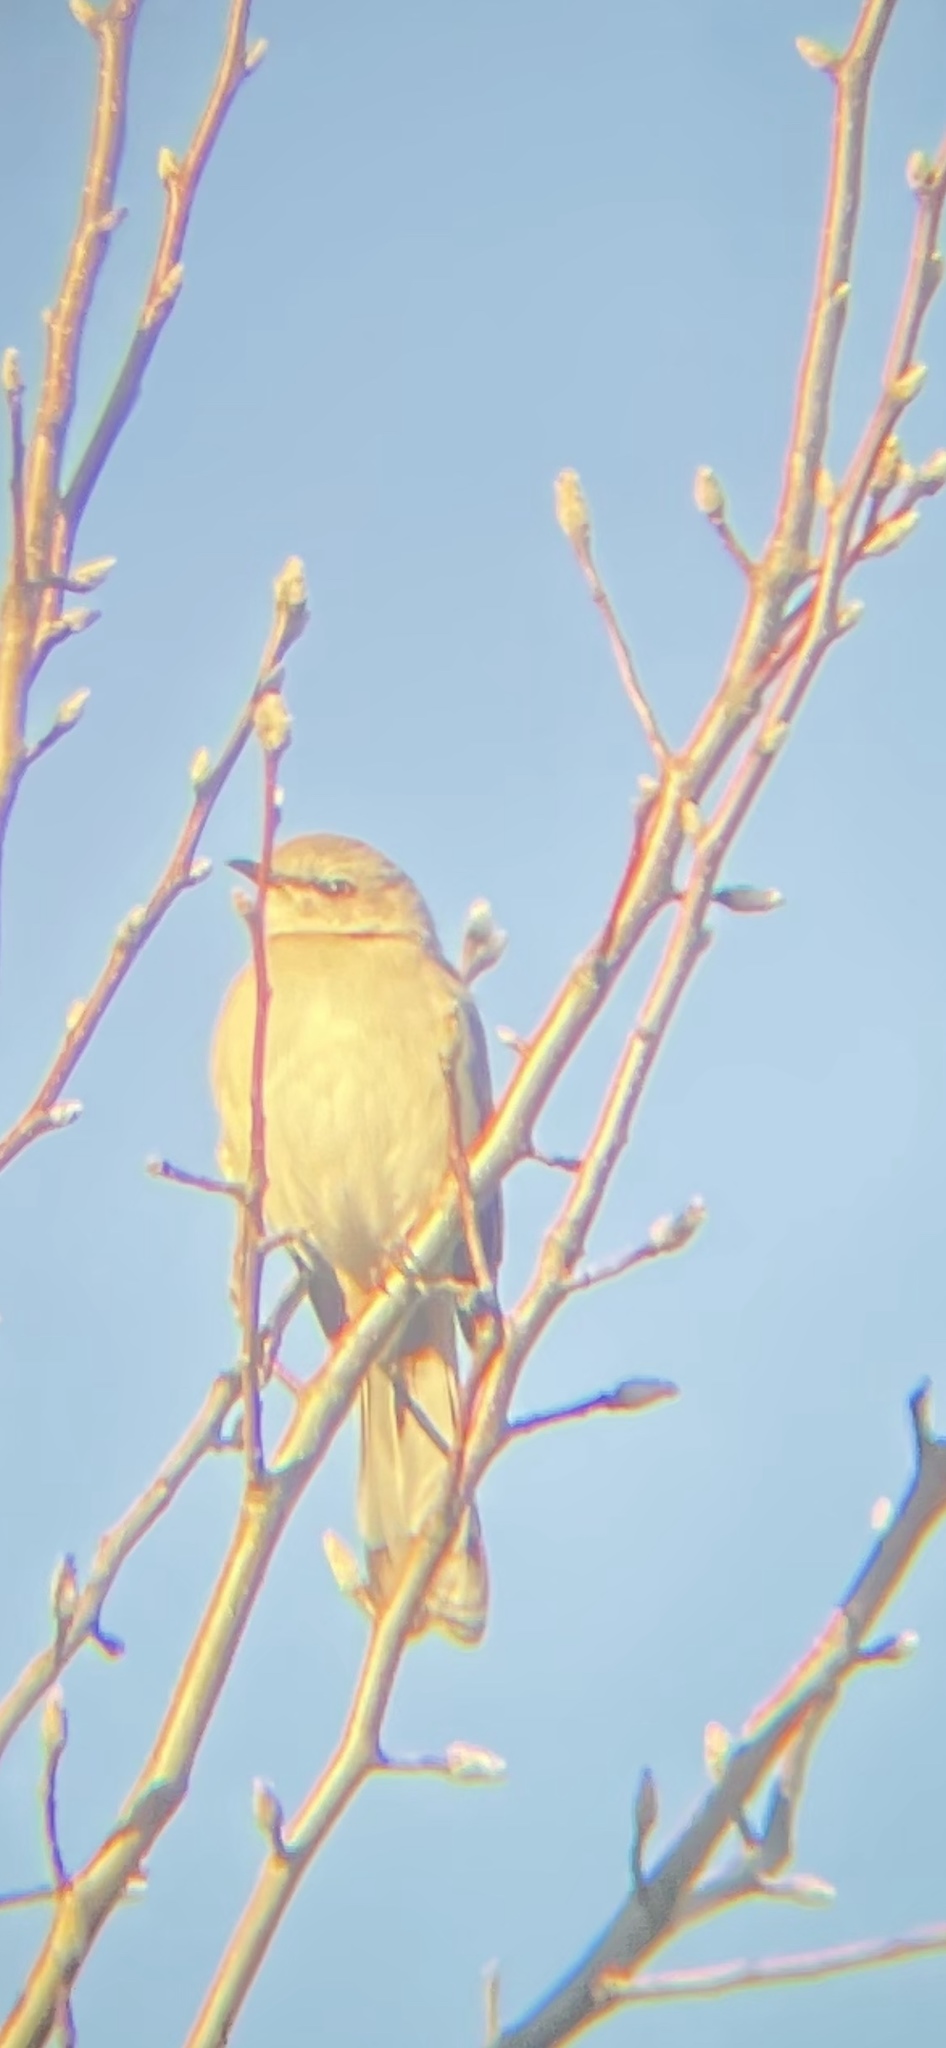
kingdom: Animalia
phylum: Chordata
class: Aves
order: Passeriformes
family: Mimidae
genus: Mimus
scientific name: Mimus polyglottos
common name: Northern mockingbird
